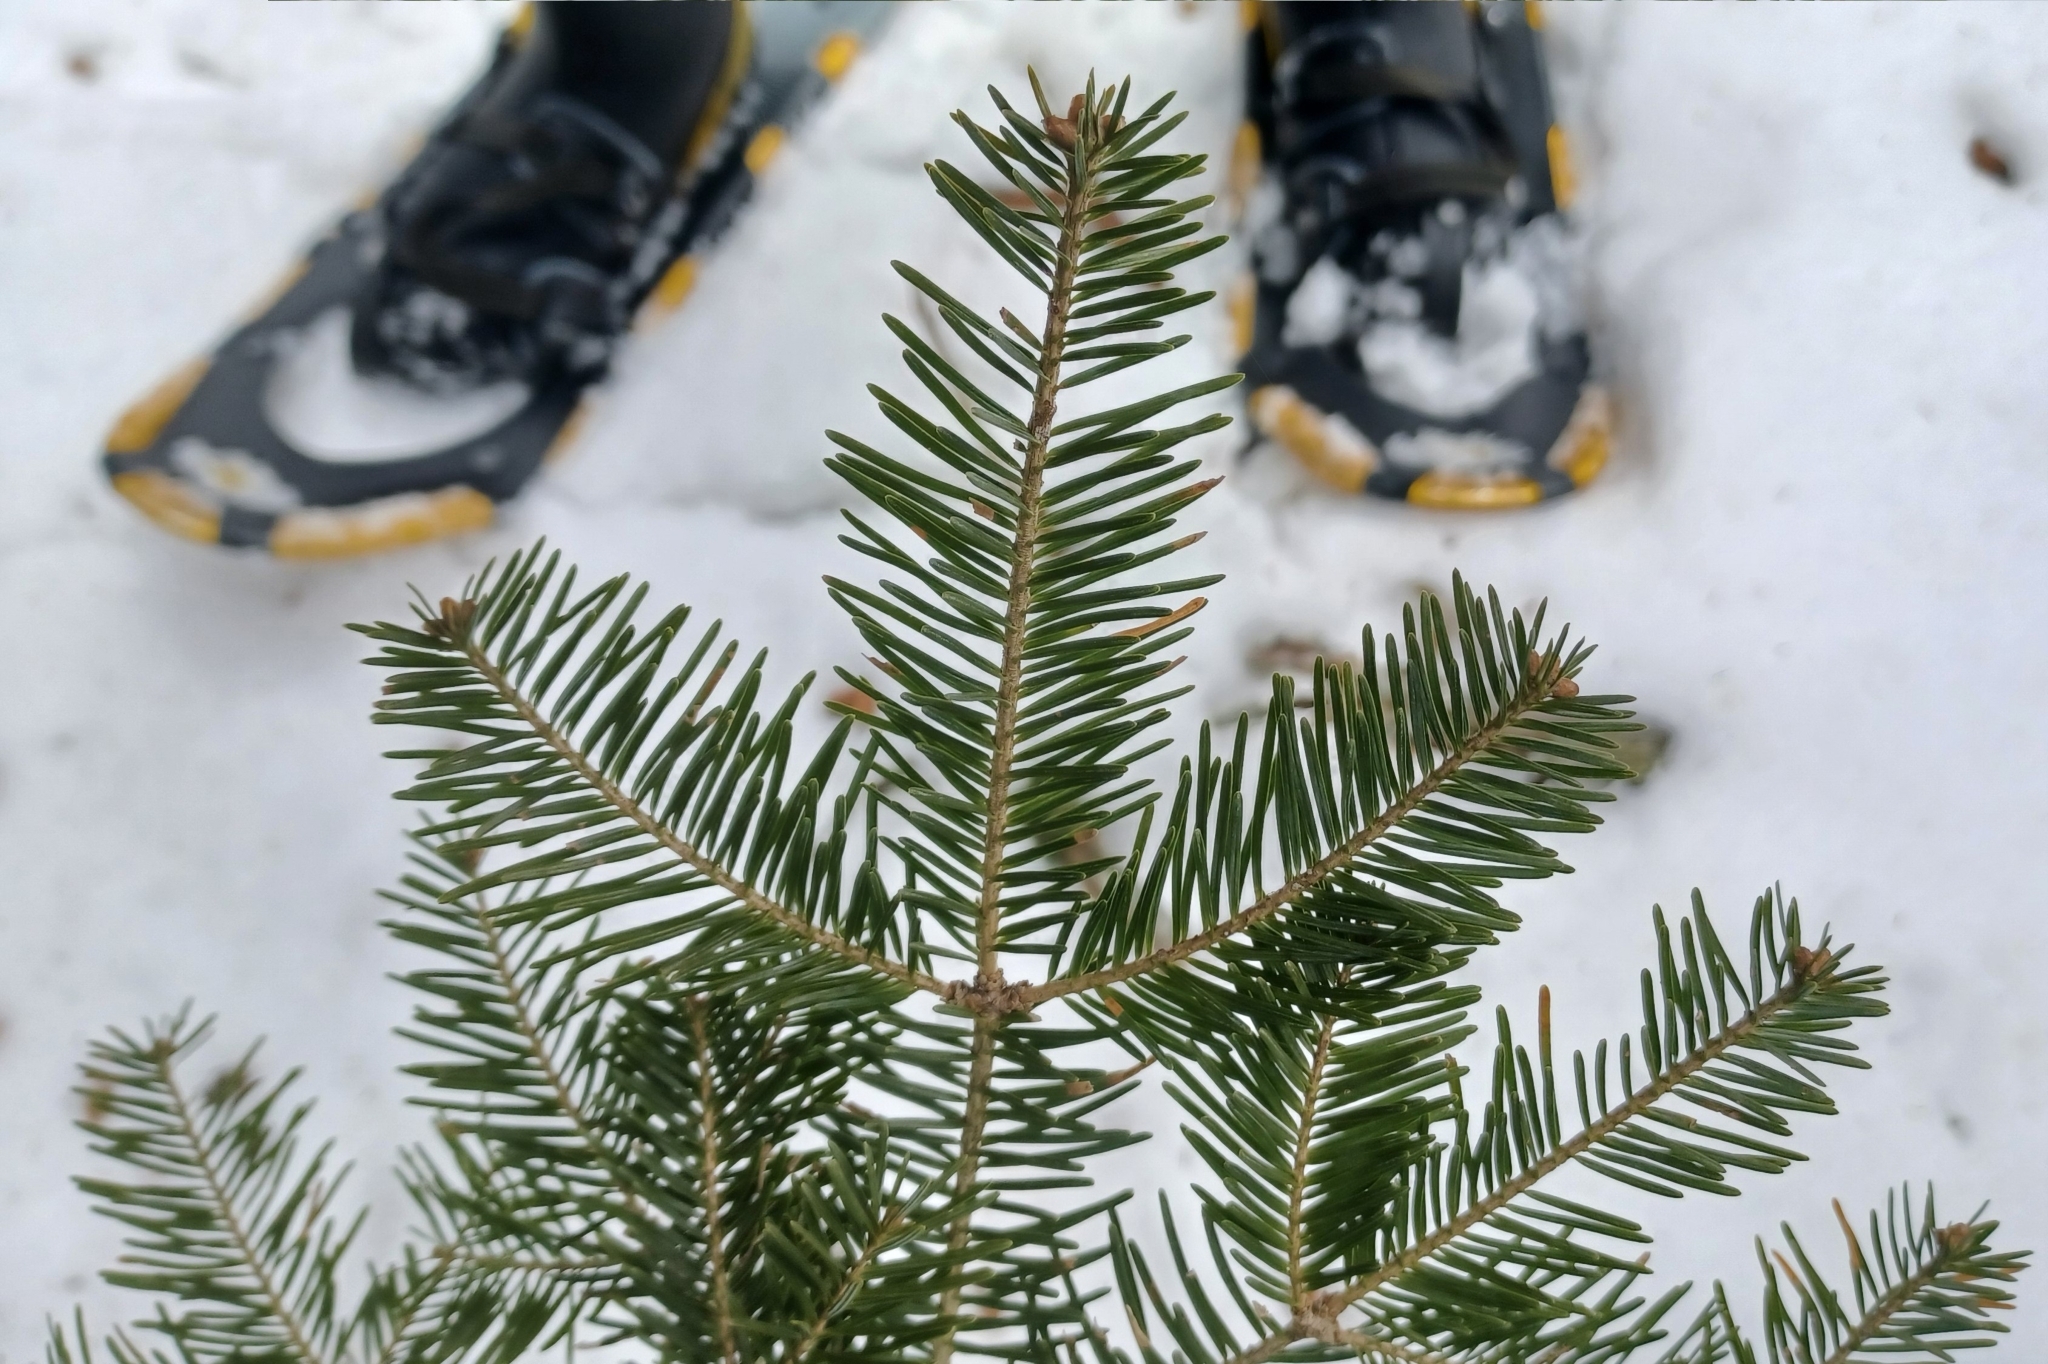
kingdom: Plantae
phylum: Tracheophyta
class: Pinopsida
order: Pinales
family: Pinaceae
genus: Abies
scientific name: Abies balsamea
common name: Balsam fir
